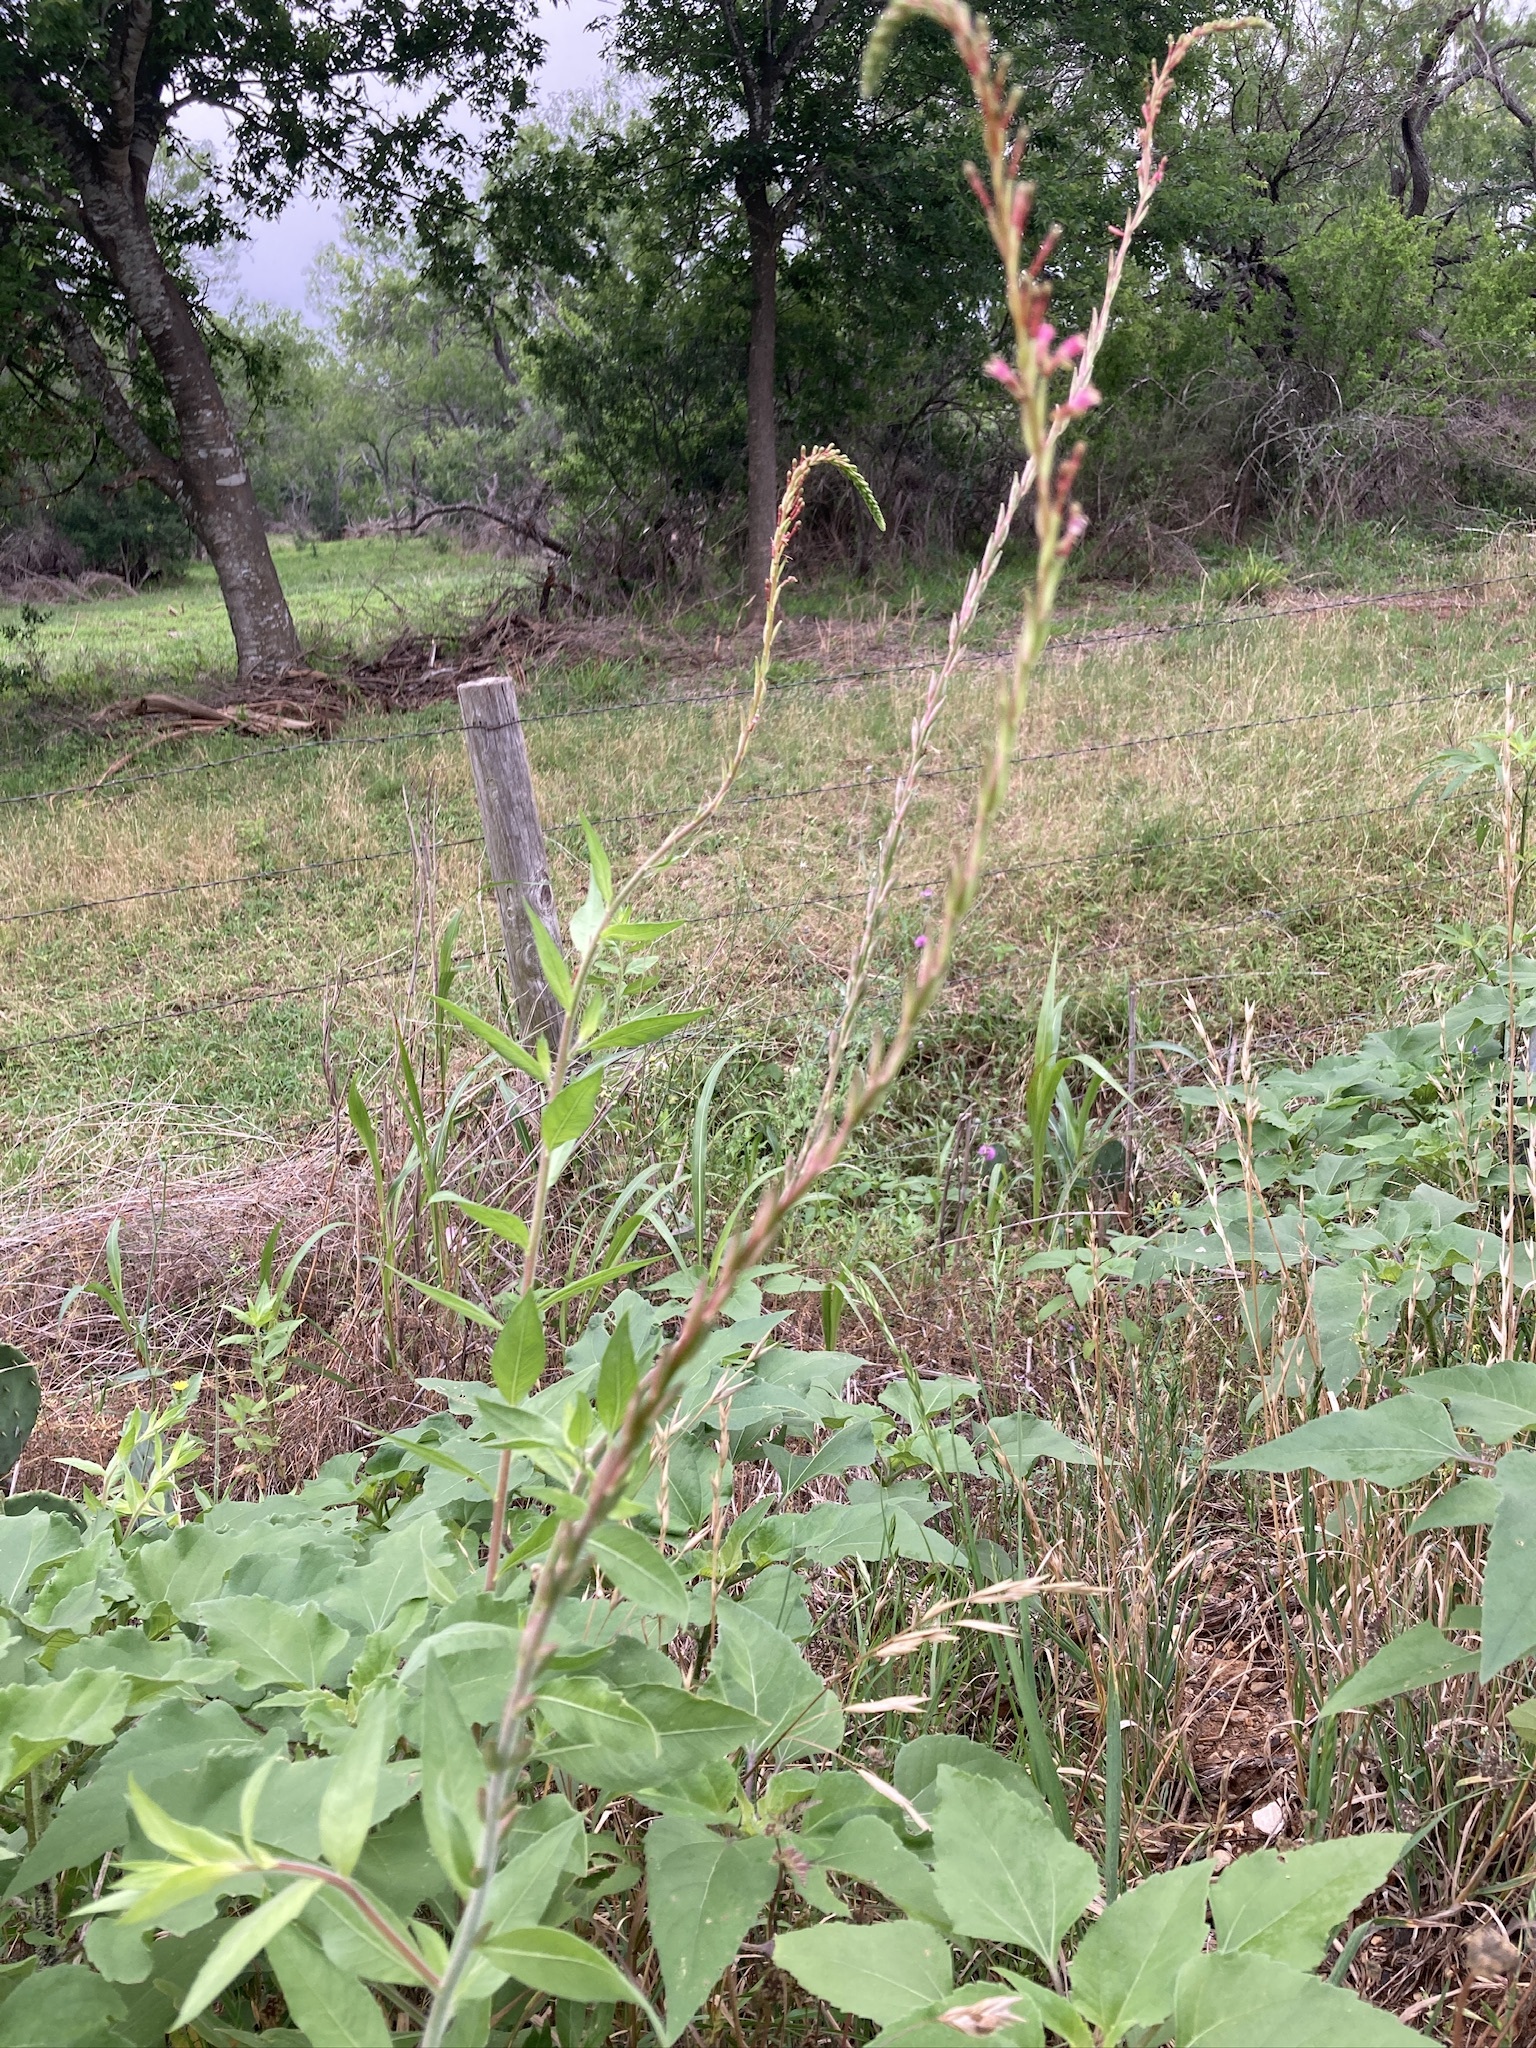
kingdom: Plantae
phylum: Tracheophyta
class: Magnoliopsida
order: Myrtales
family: Onagraceae
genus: Oenothera
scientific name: Oenothera curtiflora
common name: Velvetweed
